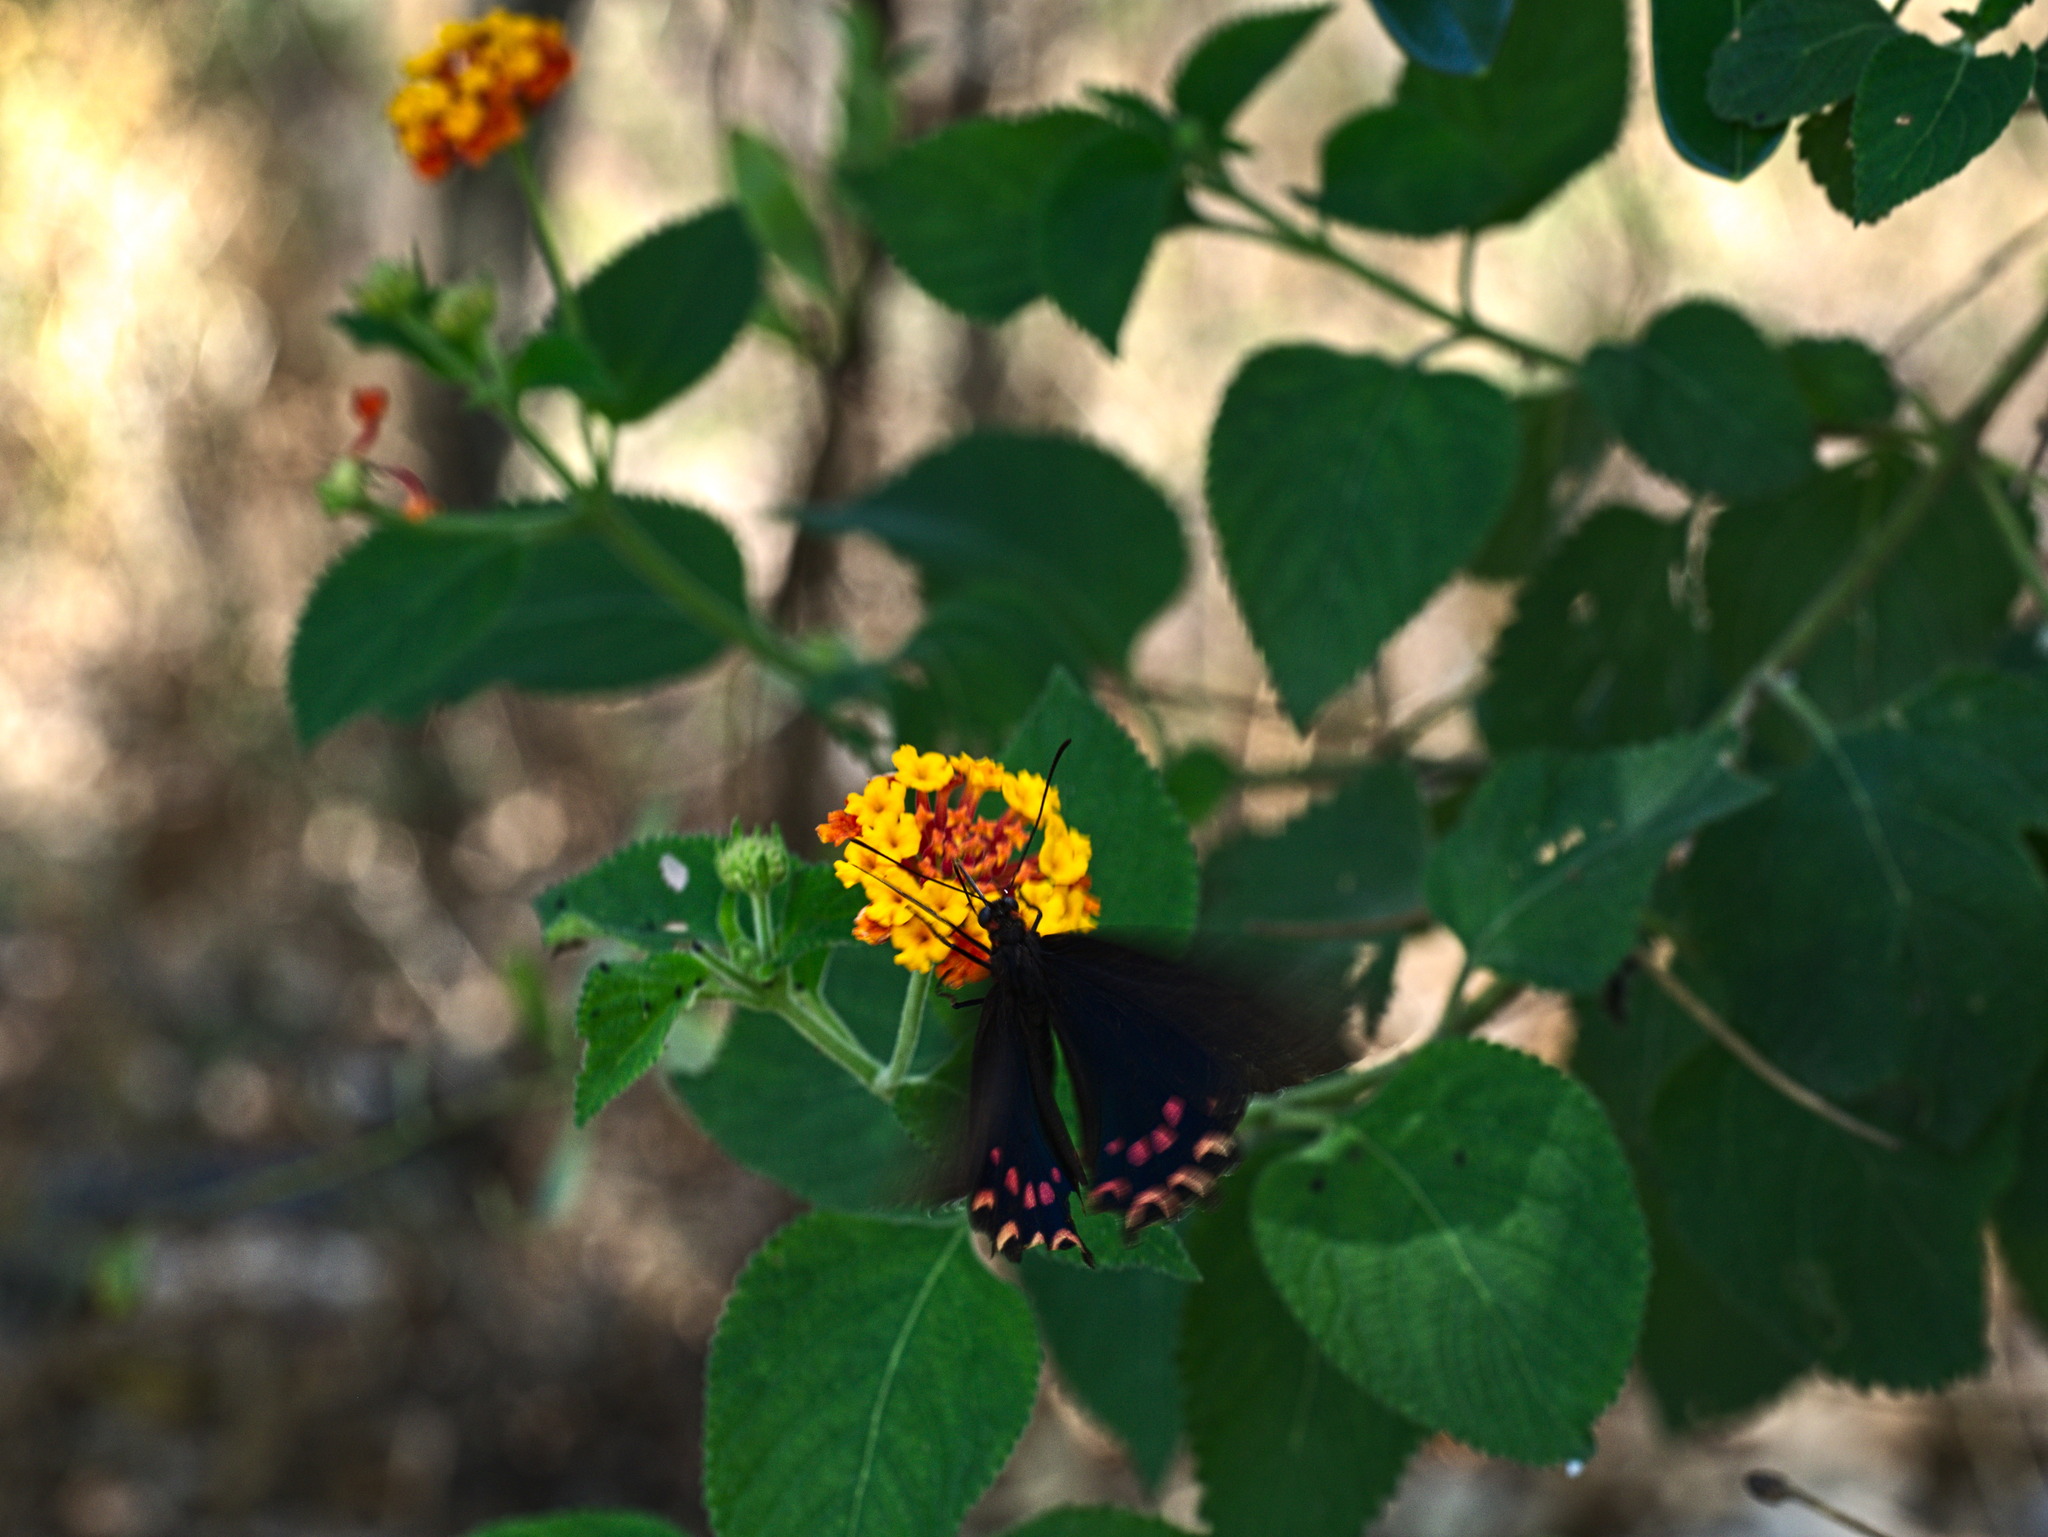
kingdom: Animalia
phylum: Arthropoda
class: Insecta
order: Lepidoptera
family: Papilionidae
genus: Parides
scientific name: Parides photinus
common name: Pink-spotted cattleheart
